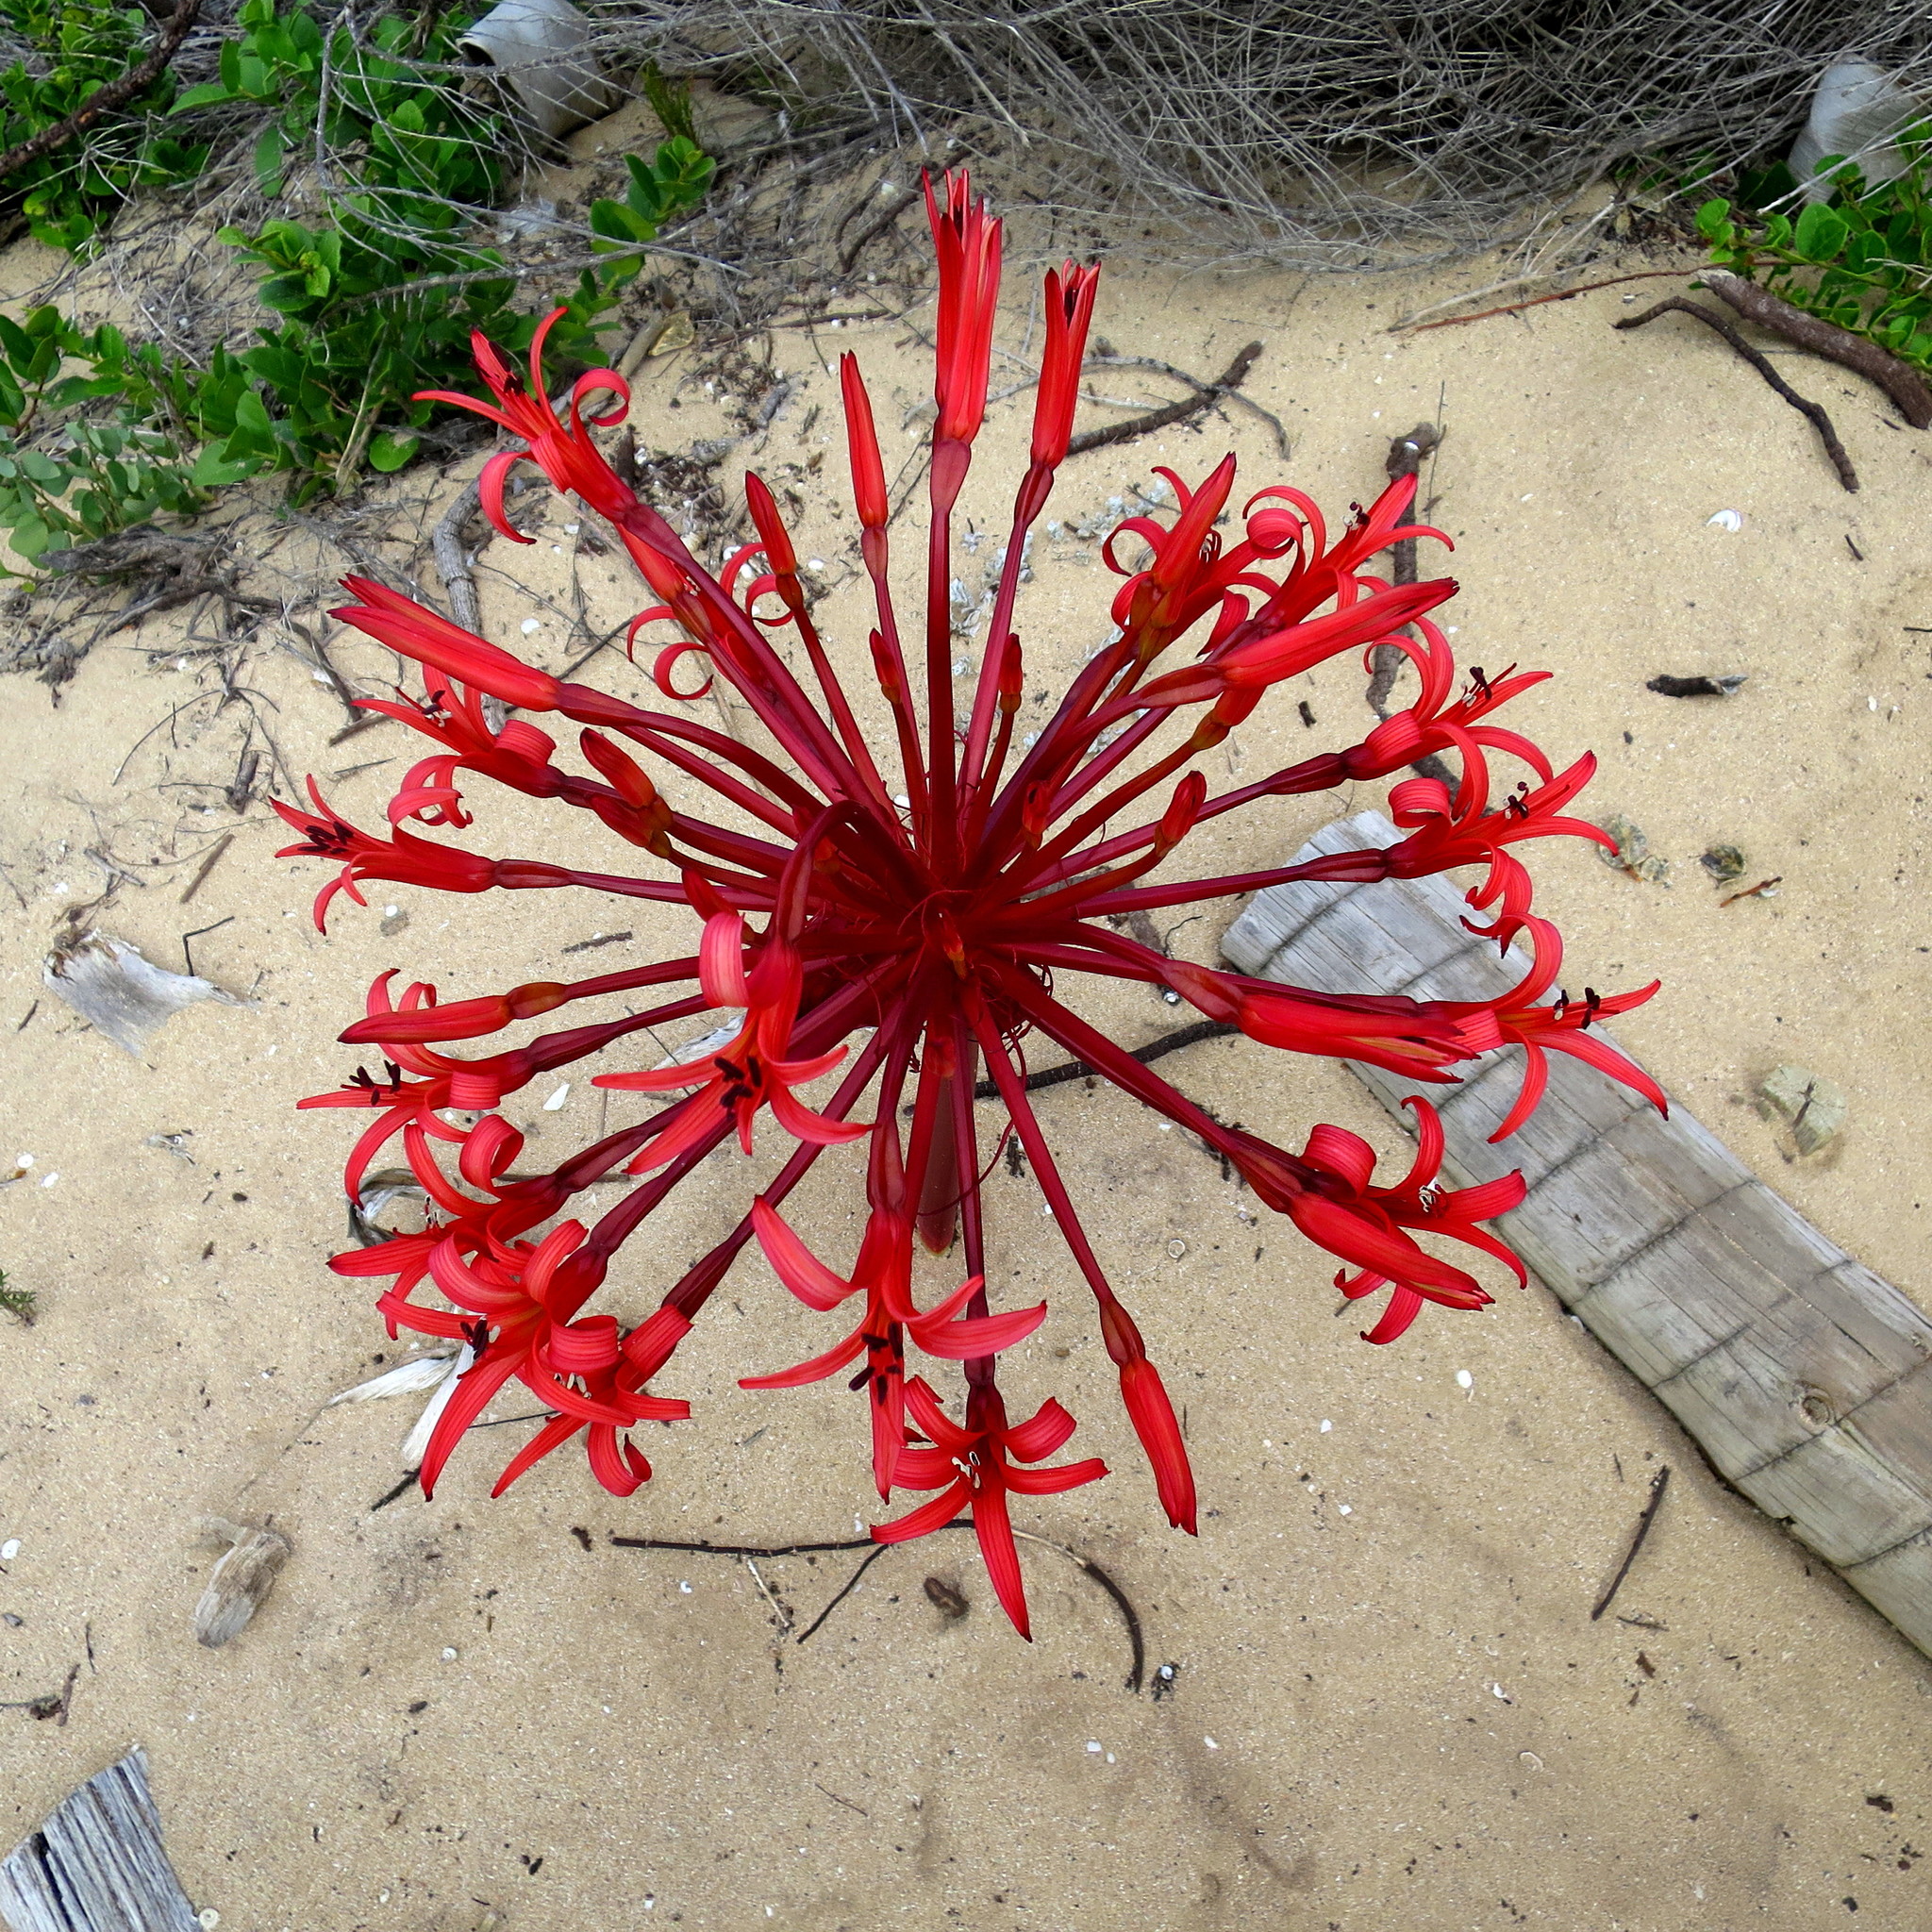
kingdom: Plantae
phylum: Tracheophyta
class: Liliopsida
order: Asparagales
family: Amaryllidaceae
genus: Brunsvigia
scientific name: Brunsvigia orientalis
